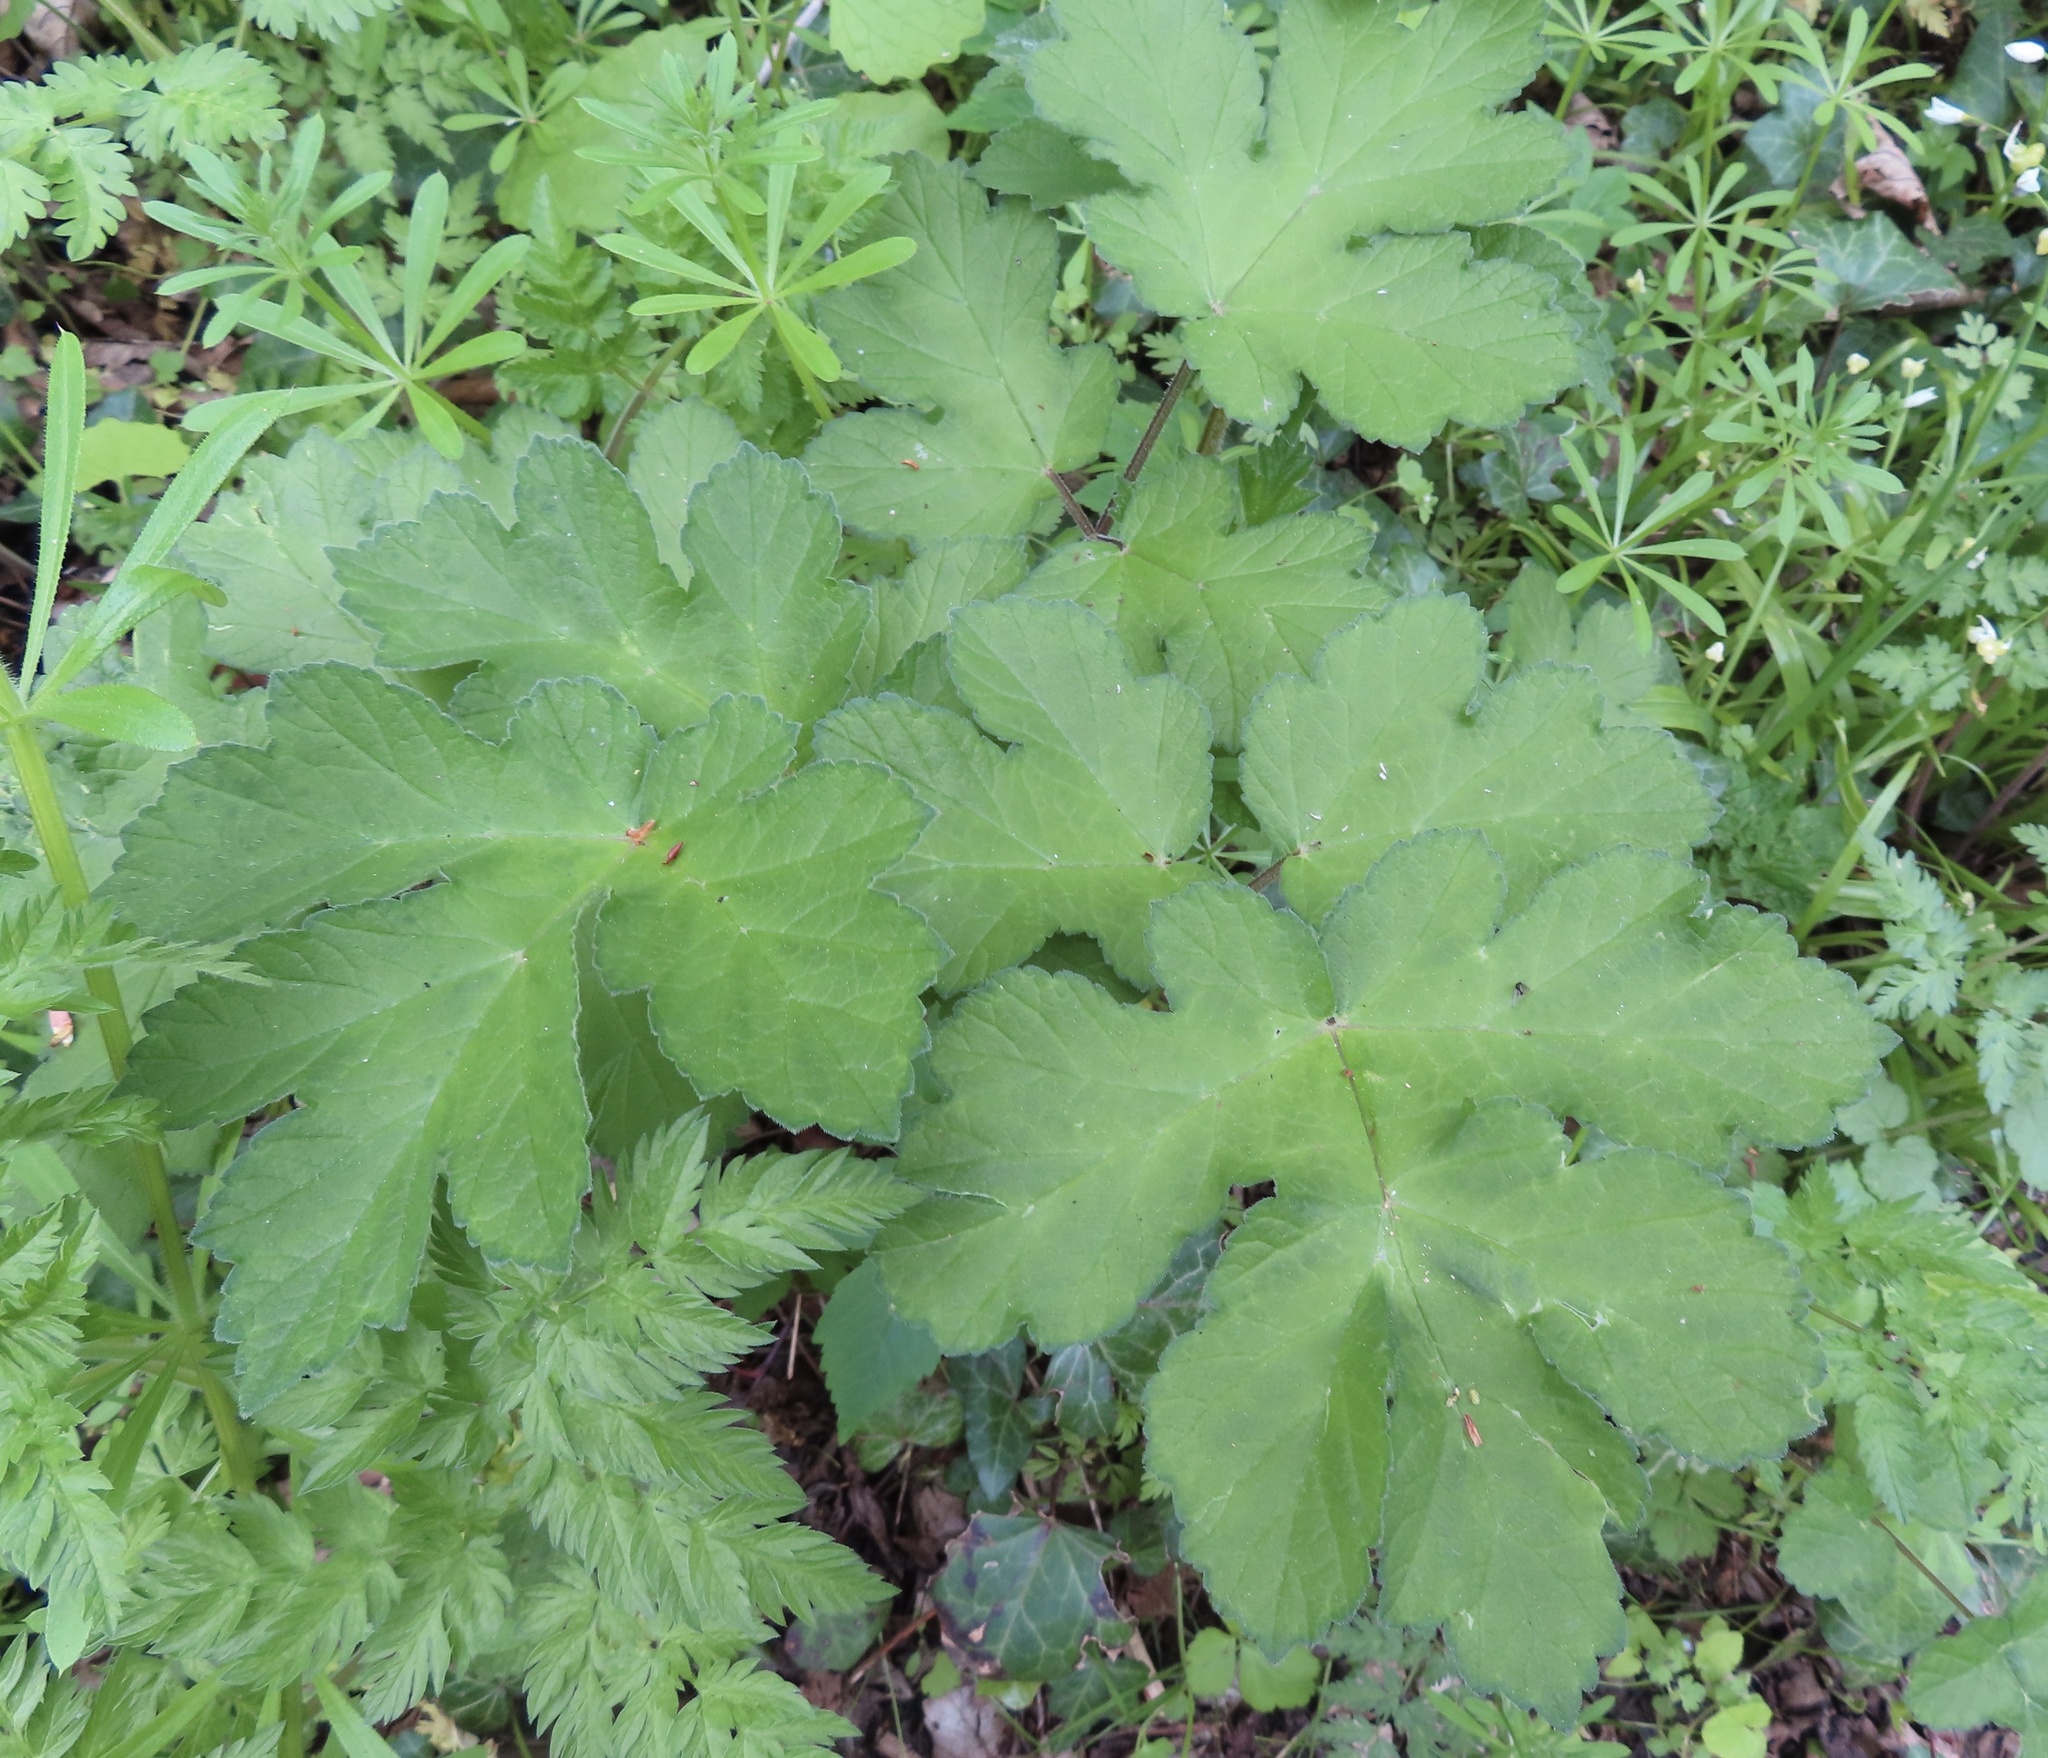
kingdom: Plantae
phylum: Tracheophyta
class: Magnoliopsida
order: Apiales
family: Apiaceae
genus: Heracleum
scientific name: Heracleum sphondylium
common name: Hogweed
